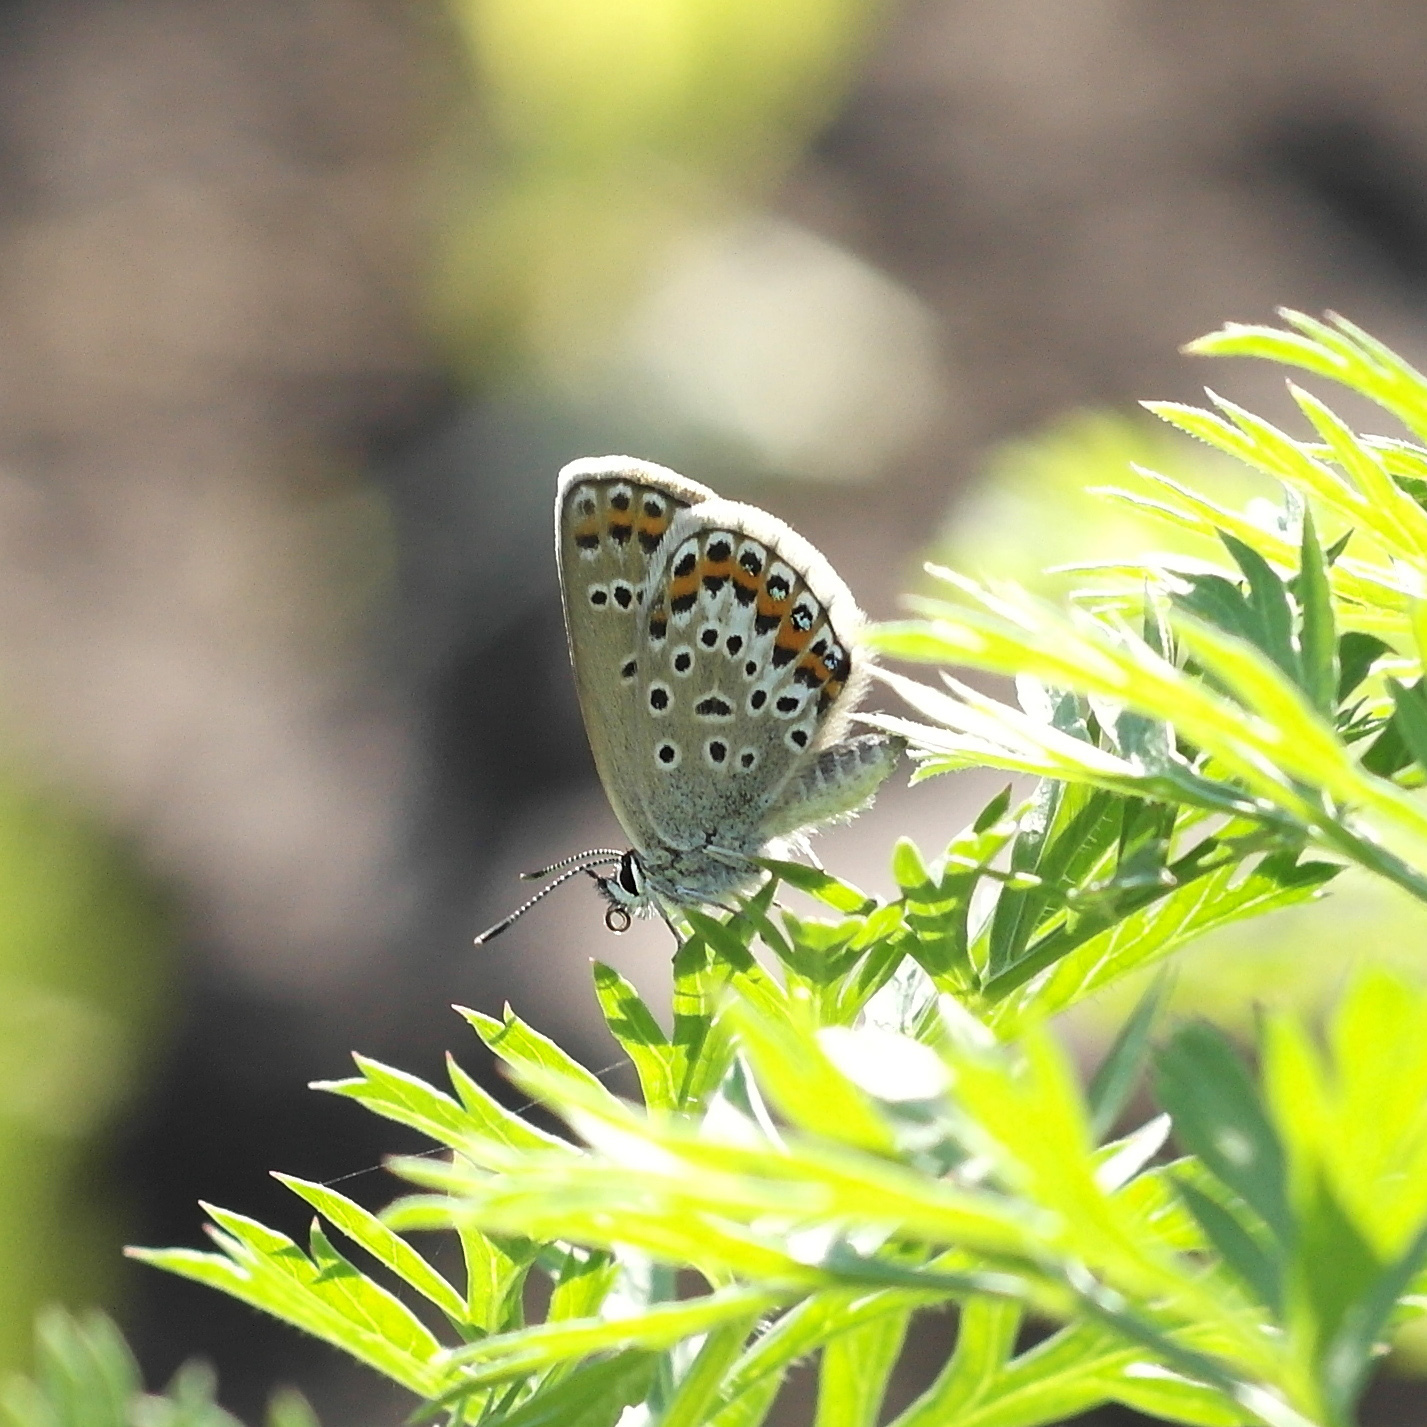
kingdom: Animalia
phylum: Arthropoda
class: Insecta
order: Lepidoptera
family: Lycaenidae
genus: Plebejus
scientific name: Plebejus argus
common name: Silver-studded blue
